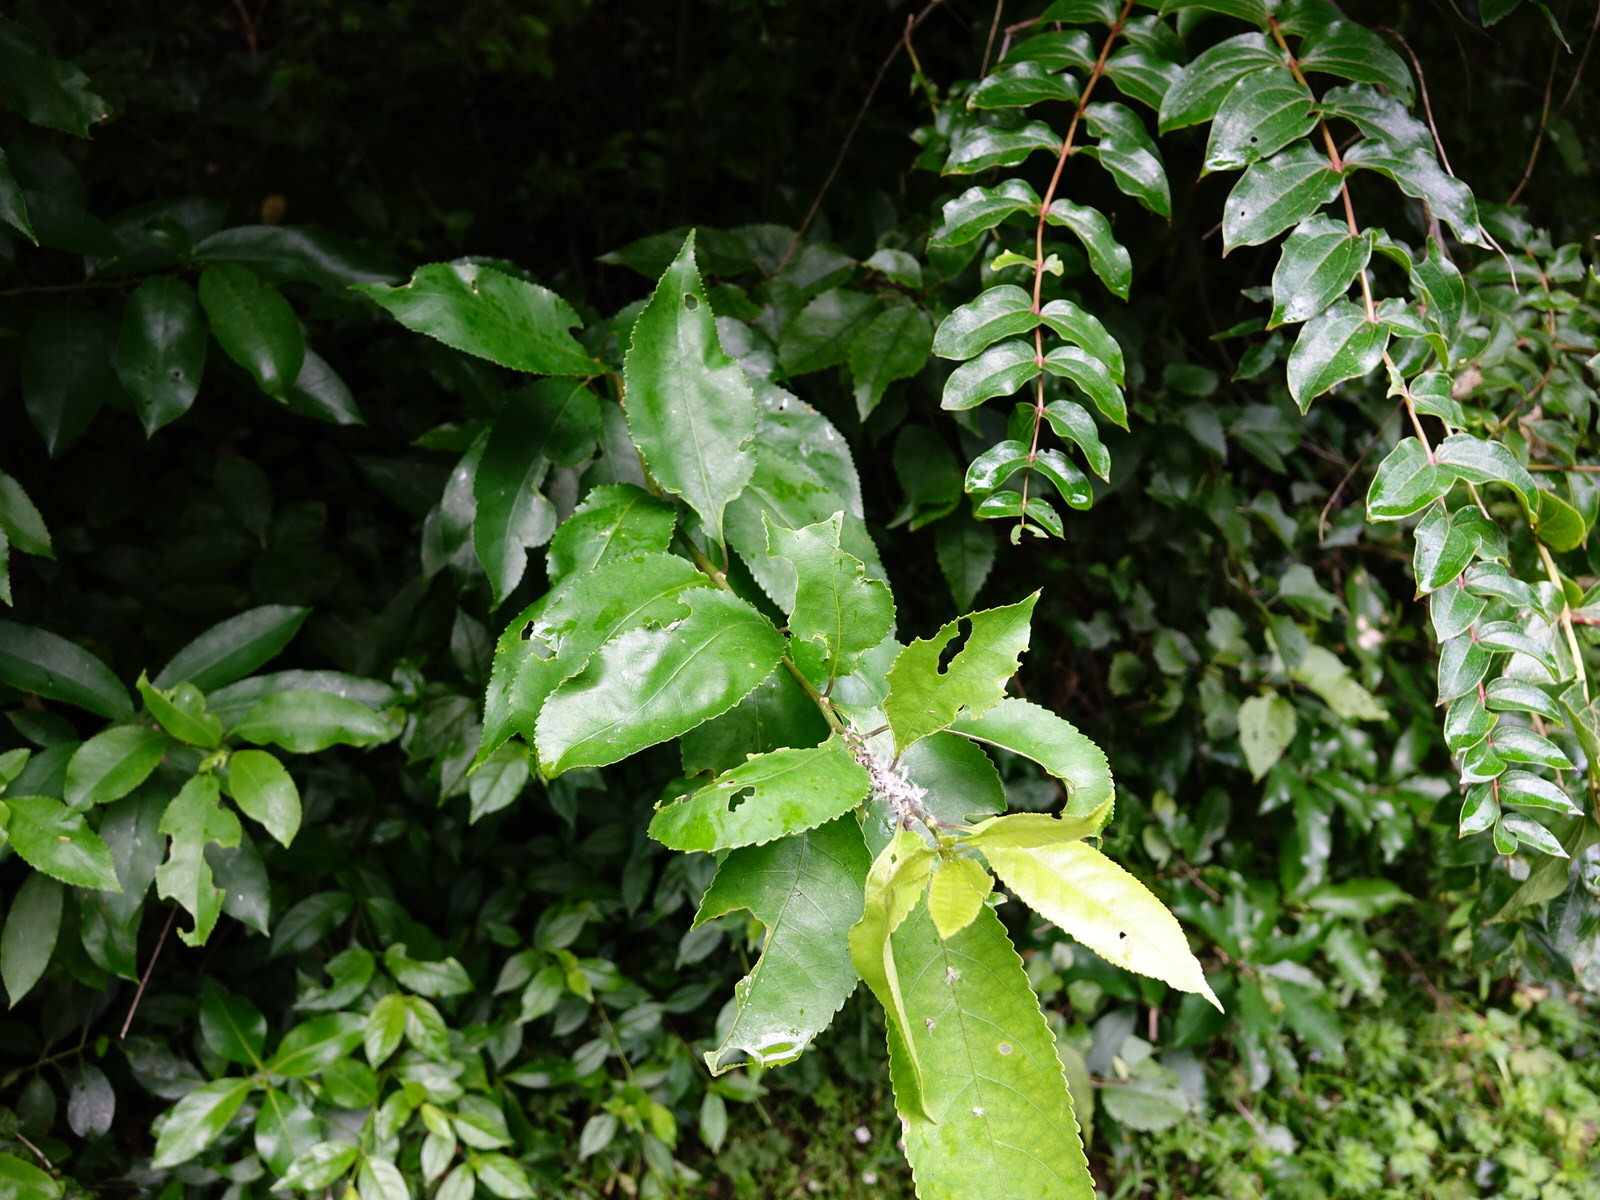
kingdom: Animalia
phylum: Arthropoda
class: Insecta
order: Hemiptera
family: Ricaniidae
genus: Scolypopa
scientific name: Scolypopa australis
